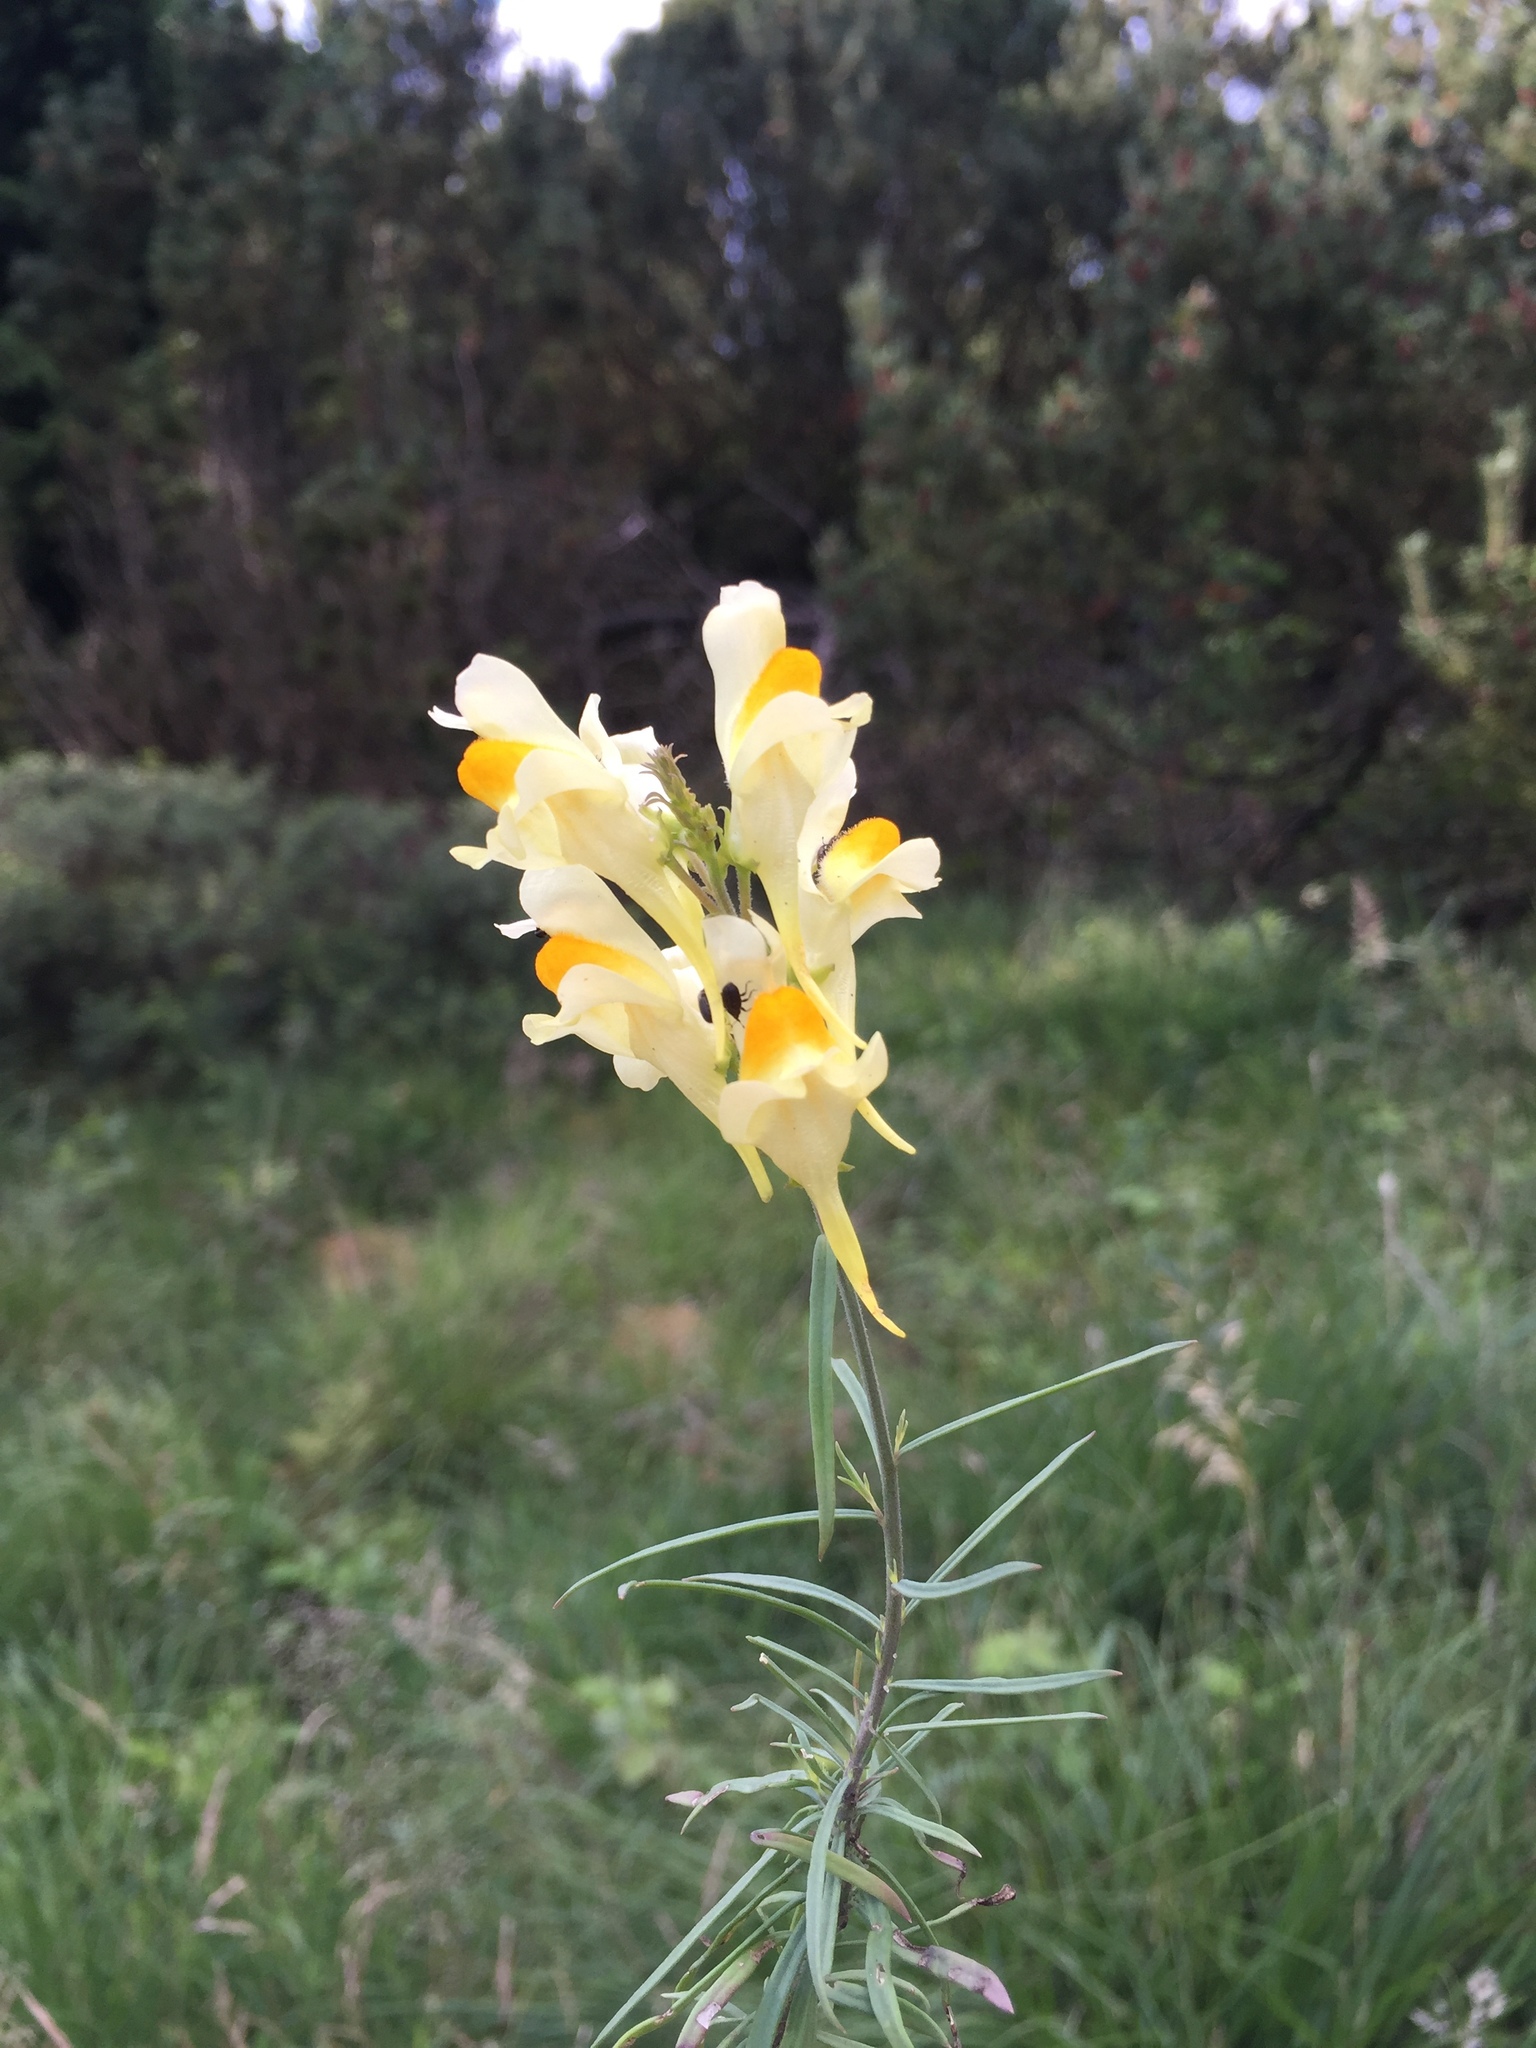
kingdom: Plantae
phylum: Tracheophyta
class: Magnoliopsida
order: Lamiales
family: Plantaginaceae
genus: Linaria
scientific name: Linaria vulgaris
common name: Butter and eggs
